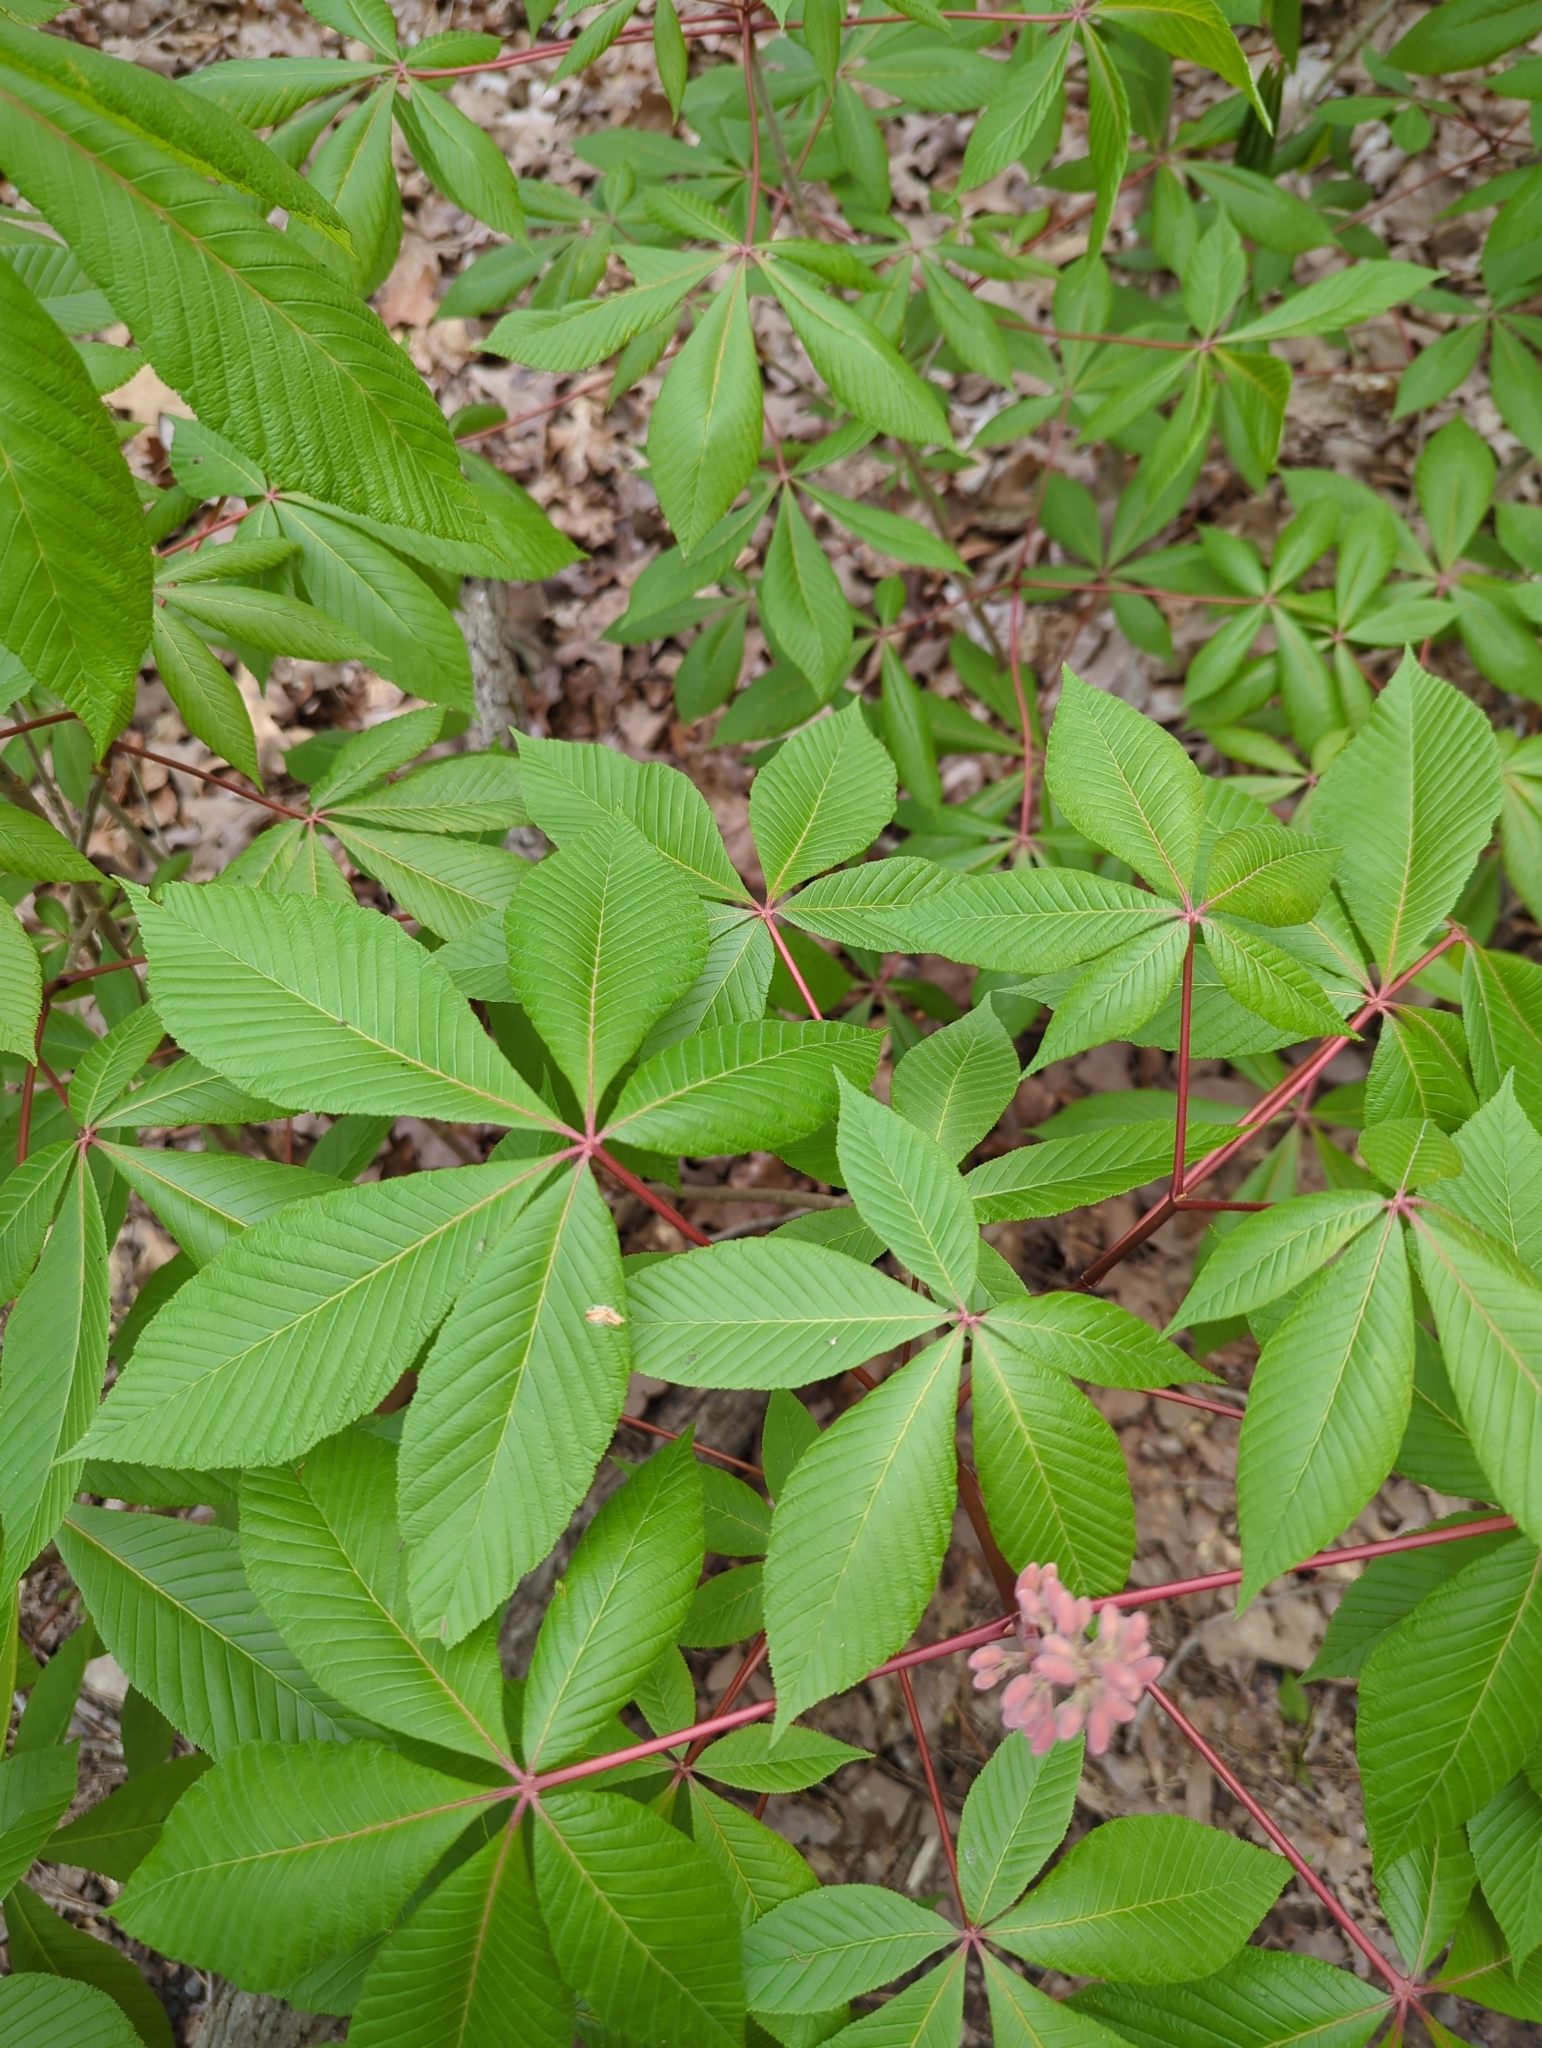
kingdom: Plantae
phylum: Tracheophyta
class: Magnoliopsida
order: Sapindales
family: Sapindaceae
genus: Aesculus
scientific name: Aesculus pavia
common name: Red buckeye
